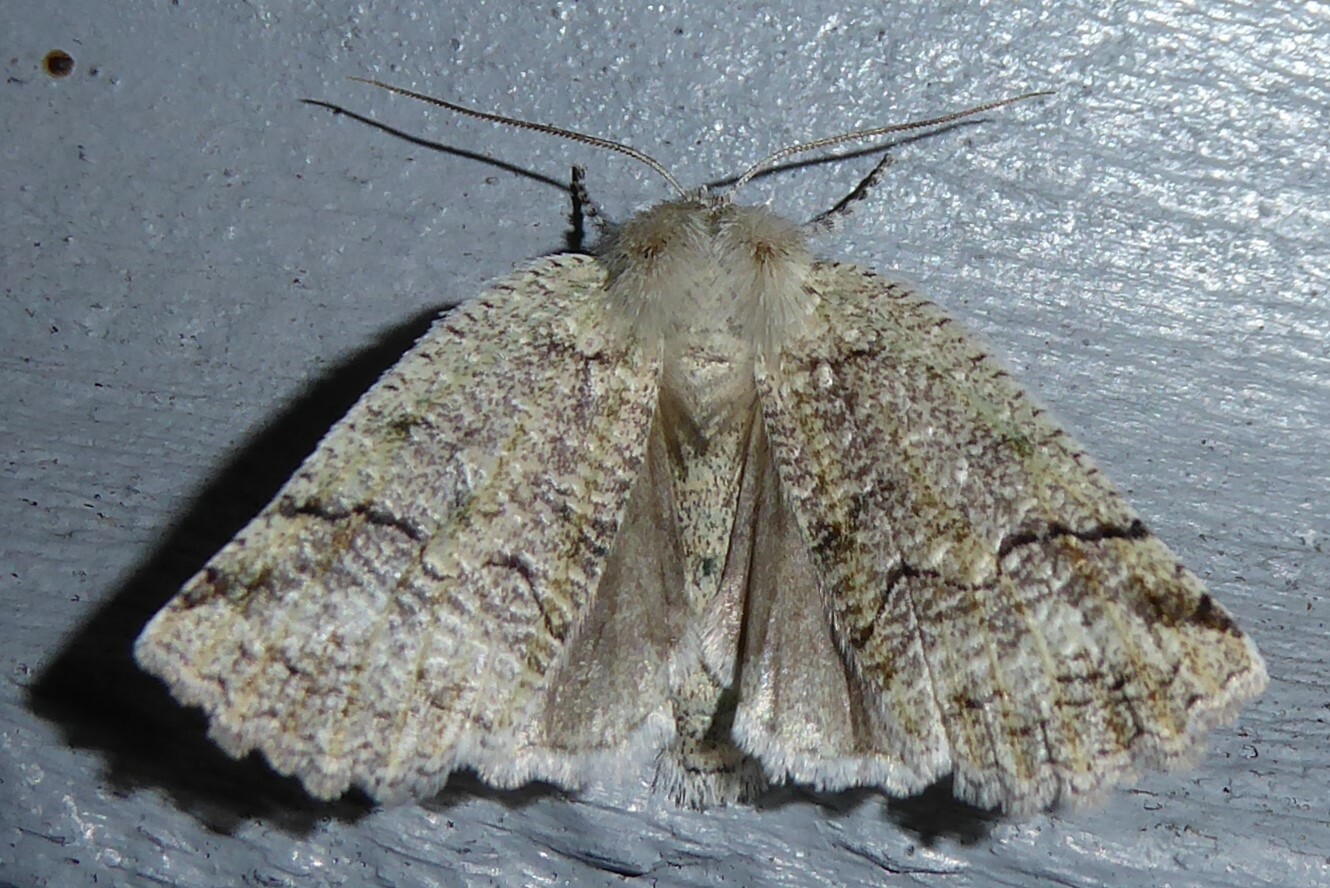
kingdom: Animalia
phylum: Arthropoda
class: Insecta
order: Lepidoptera
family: Geometridae
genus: Declana
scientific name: Declana floccosa
